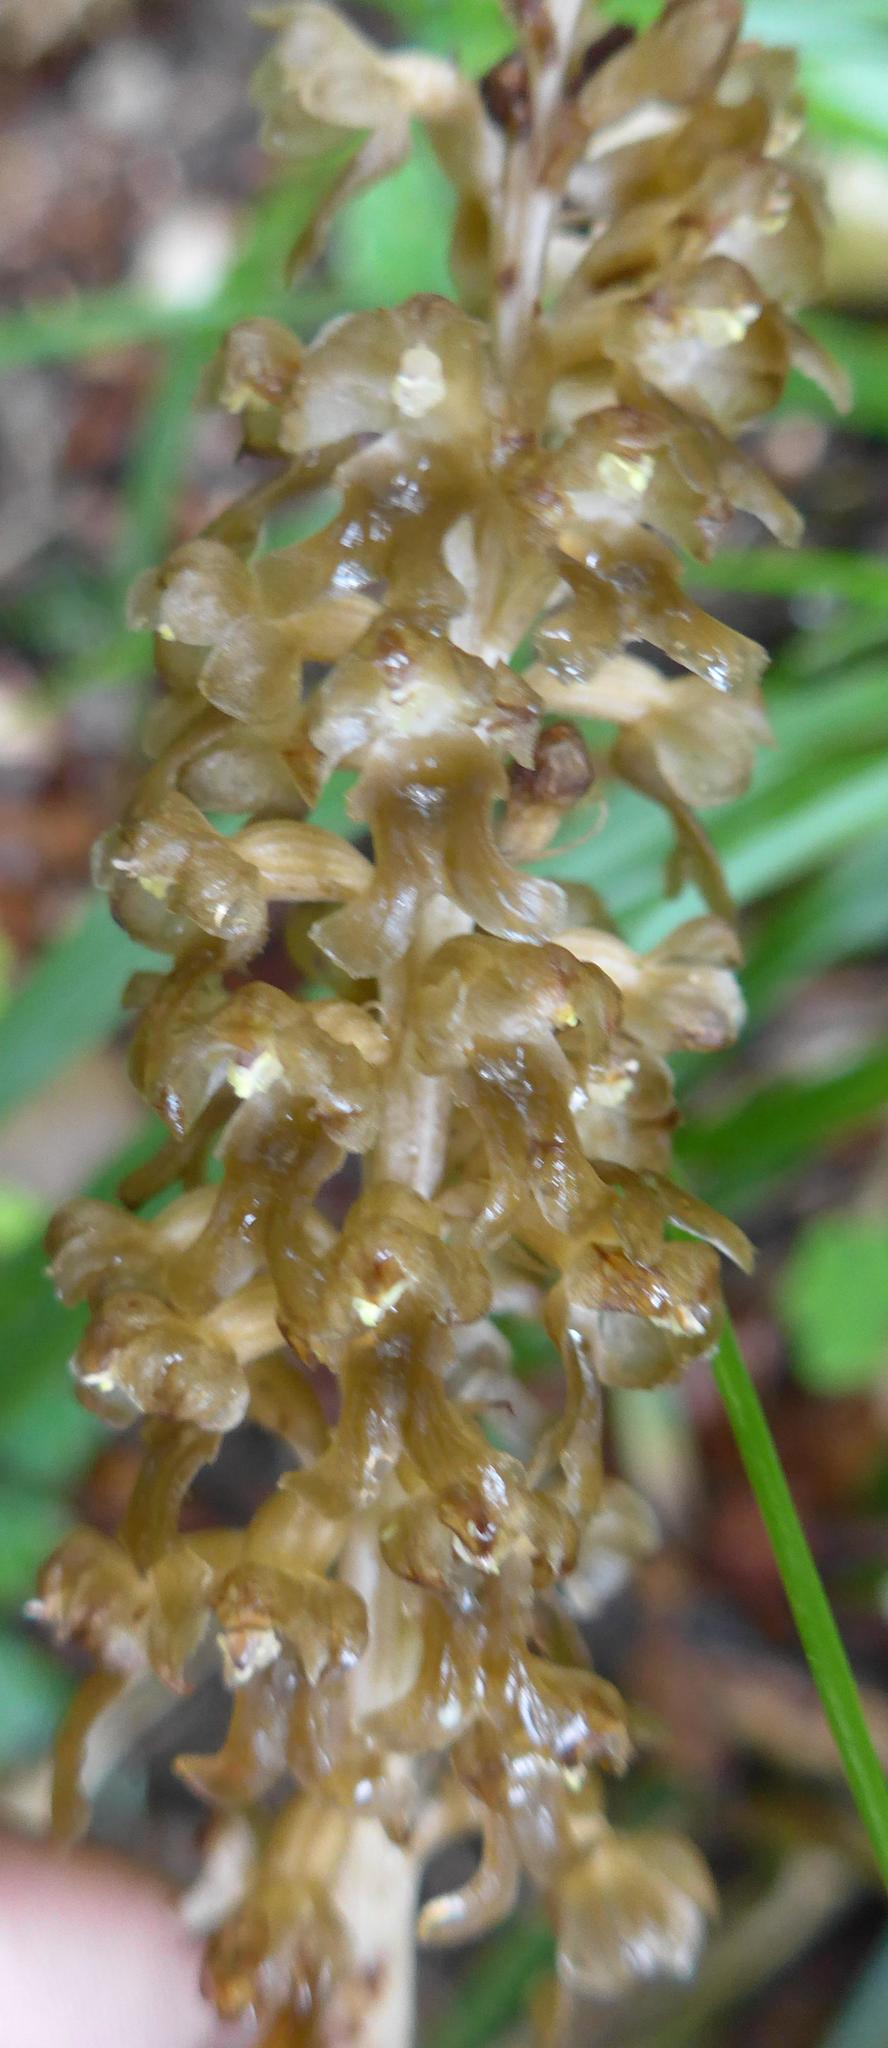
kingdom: Plantae
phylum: Tracheophyta
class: Liliopsida
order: Asparagales
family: Orchidaceae
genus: Neottia
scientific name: Neottia nidus-avis
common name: Bird's-nest orchid
